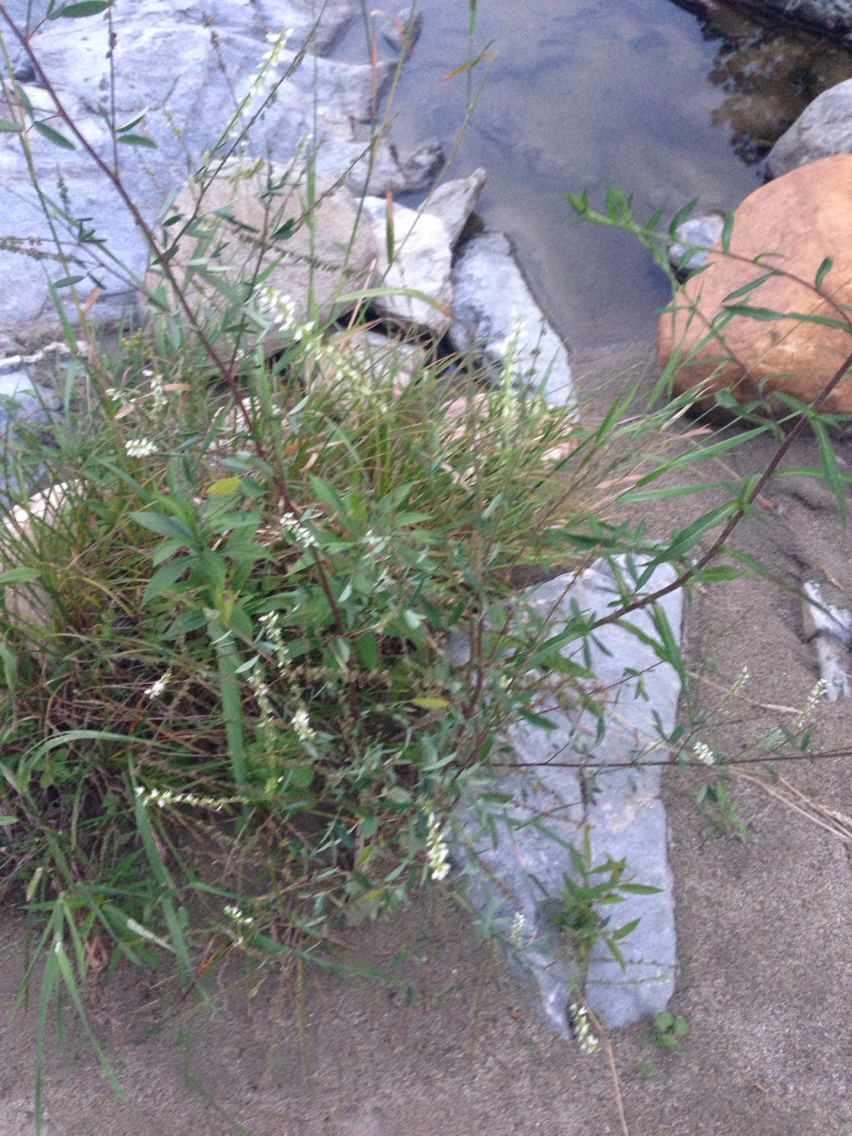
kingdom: Plantae
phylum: Tracheophyta
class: Magnoliopsida
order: Fabales
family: Fabaceae
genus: Melilotus
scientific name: Melilotus albus
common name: White melilot
